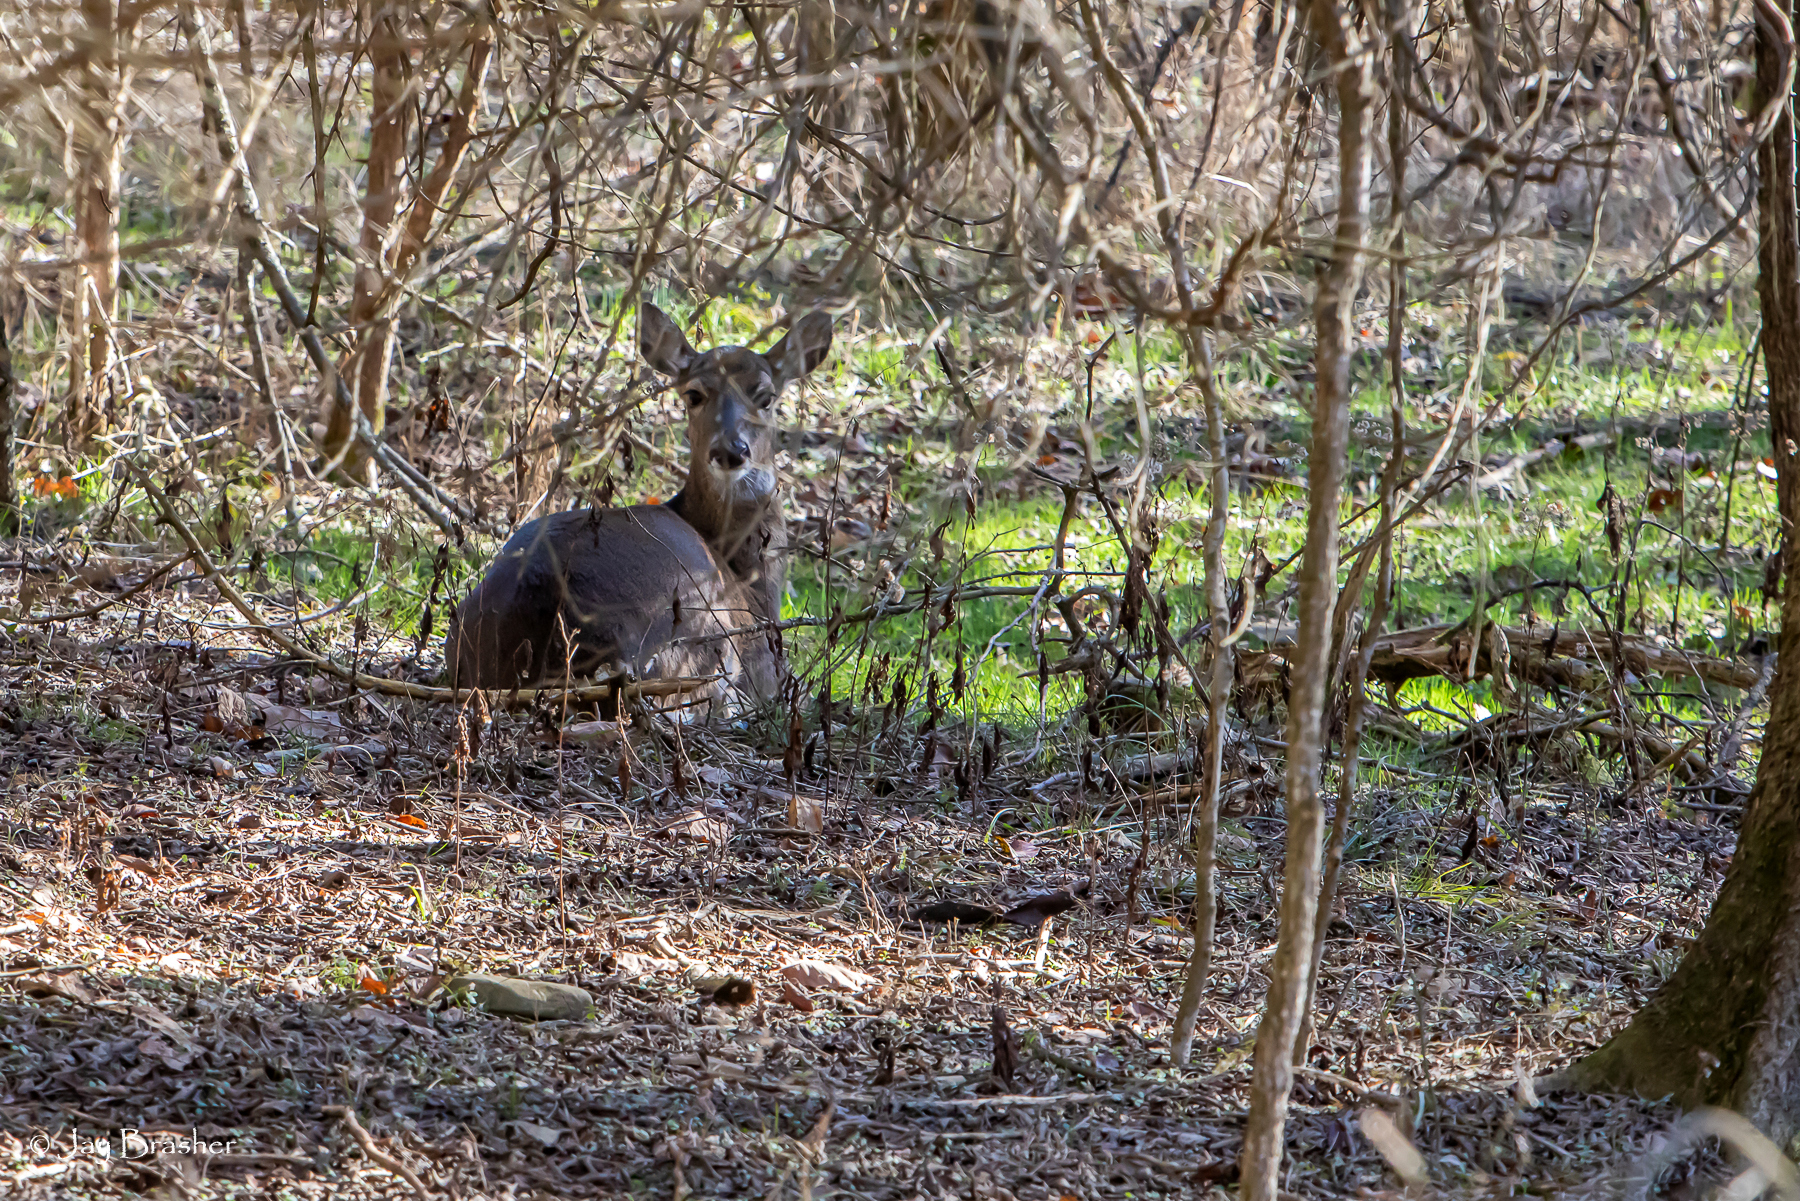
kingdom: Animalia
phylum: Chordata
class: Mammalia
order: Artiodactyla
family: Cervidae
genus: Odocoileus
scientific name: Odocoileus virginianus
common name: White-tailed deer
